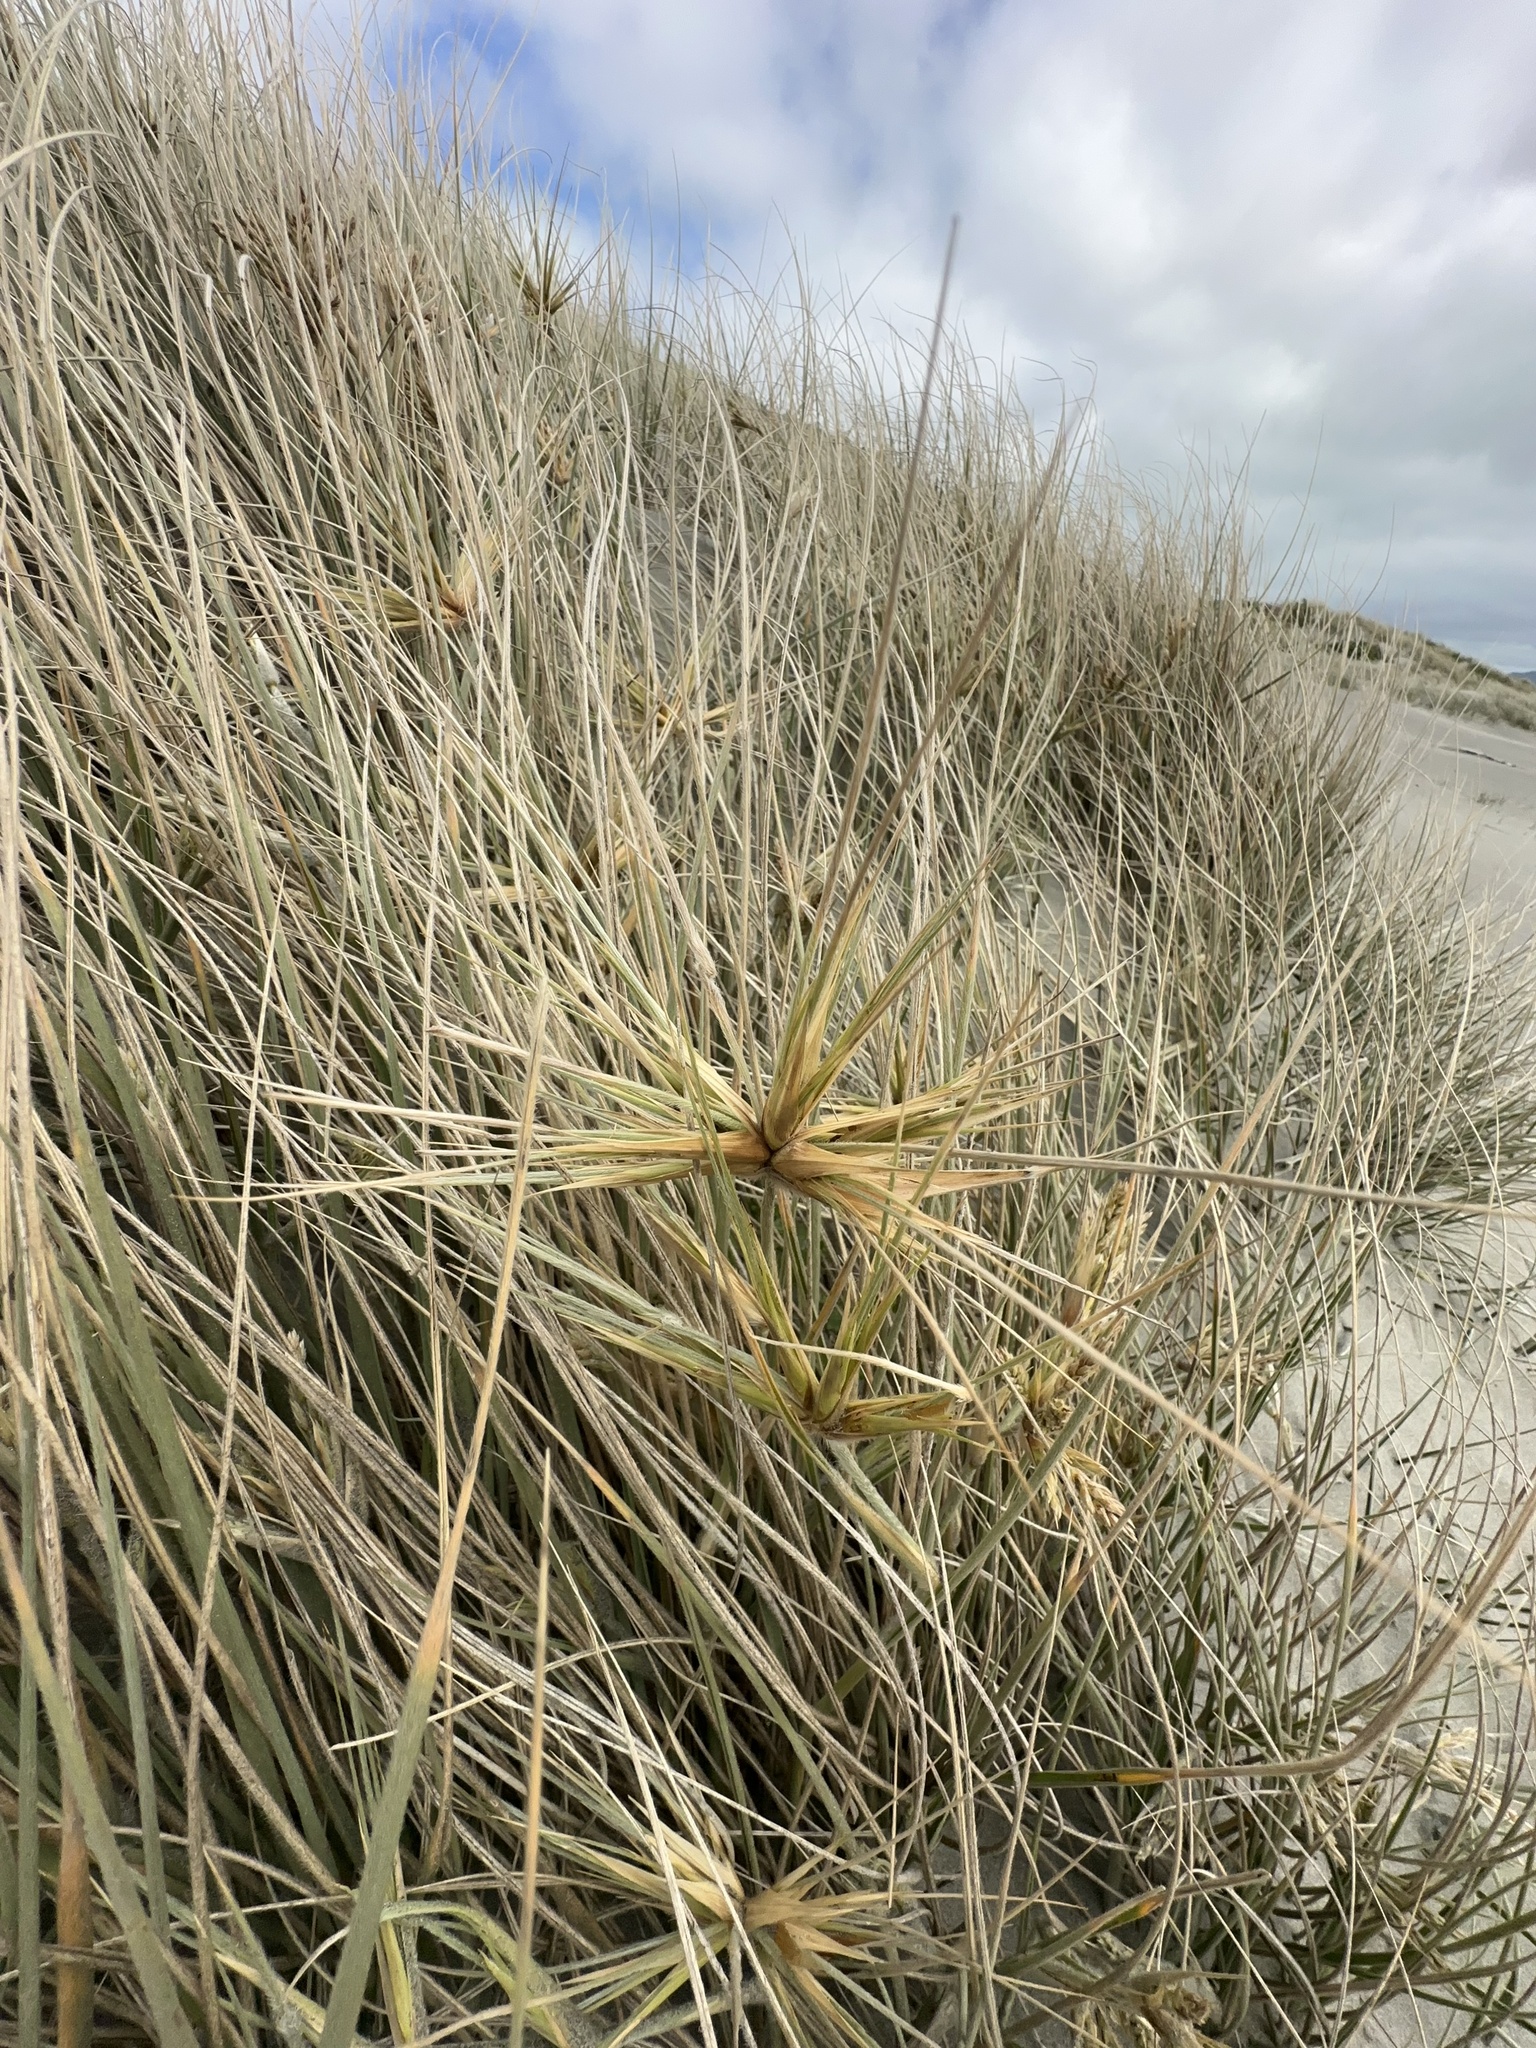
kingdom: Plantae
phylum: Tracheophyta
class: Liliopsida
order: Poales
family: Poaceae
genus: Spinifex
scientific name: Spinifex sericeus
